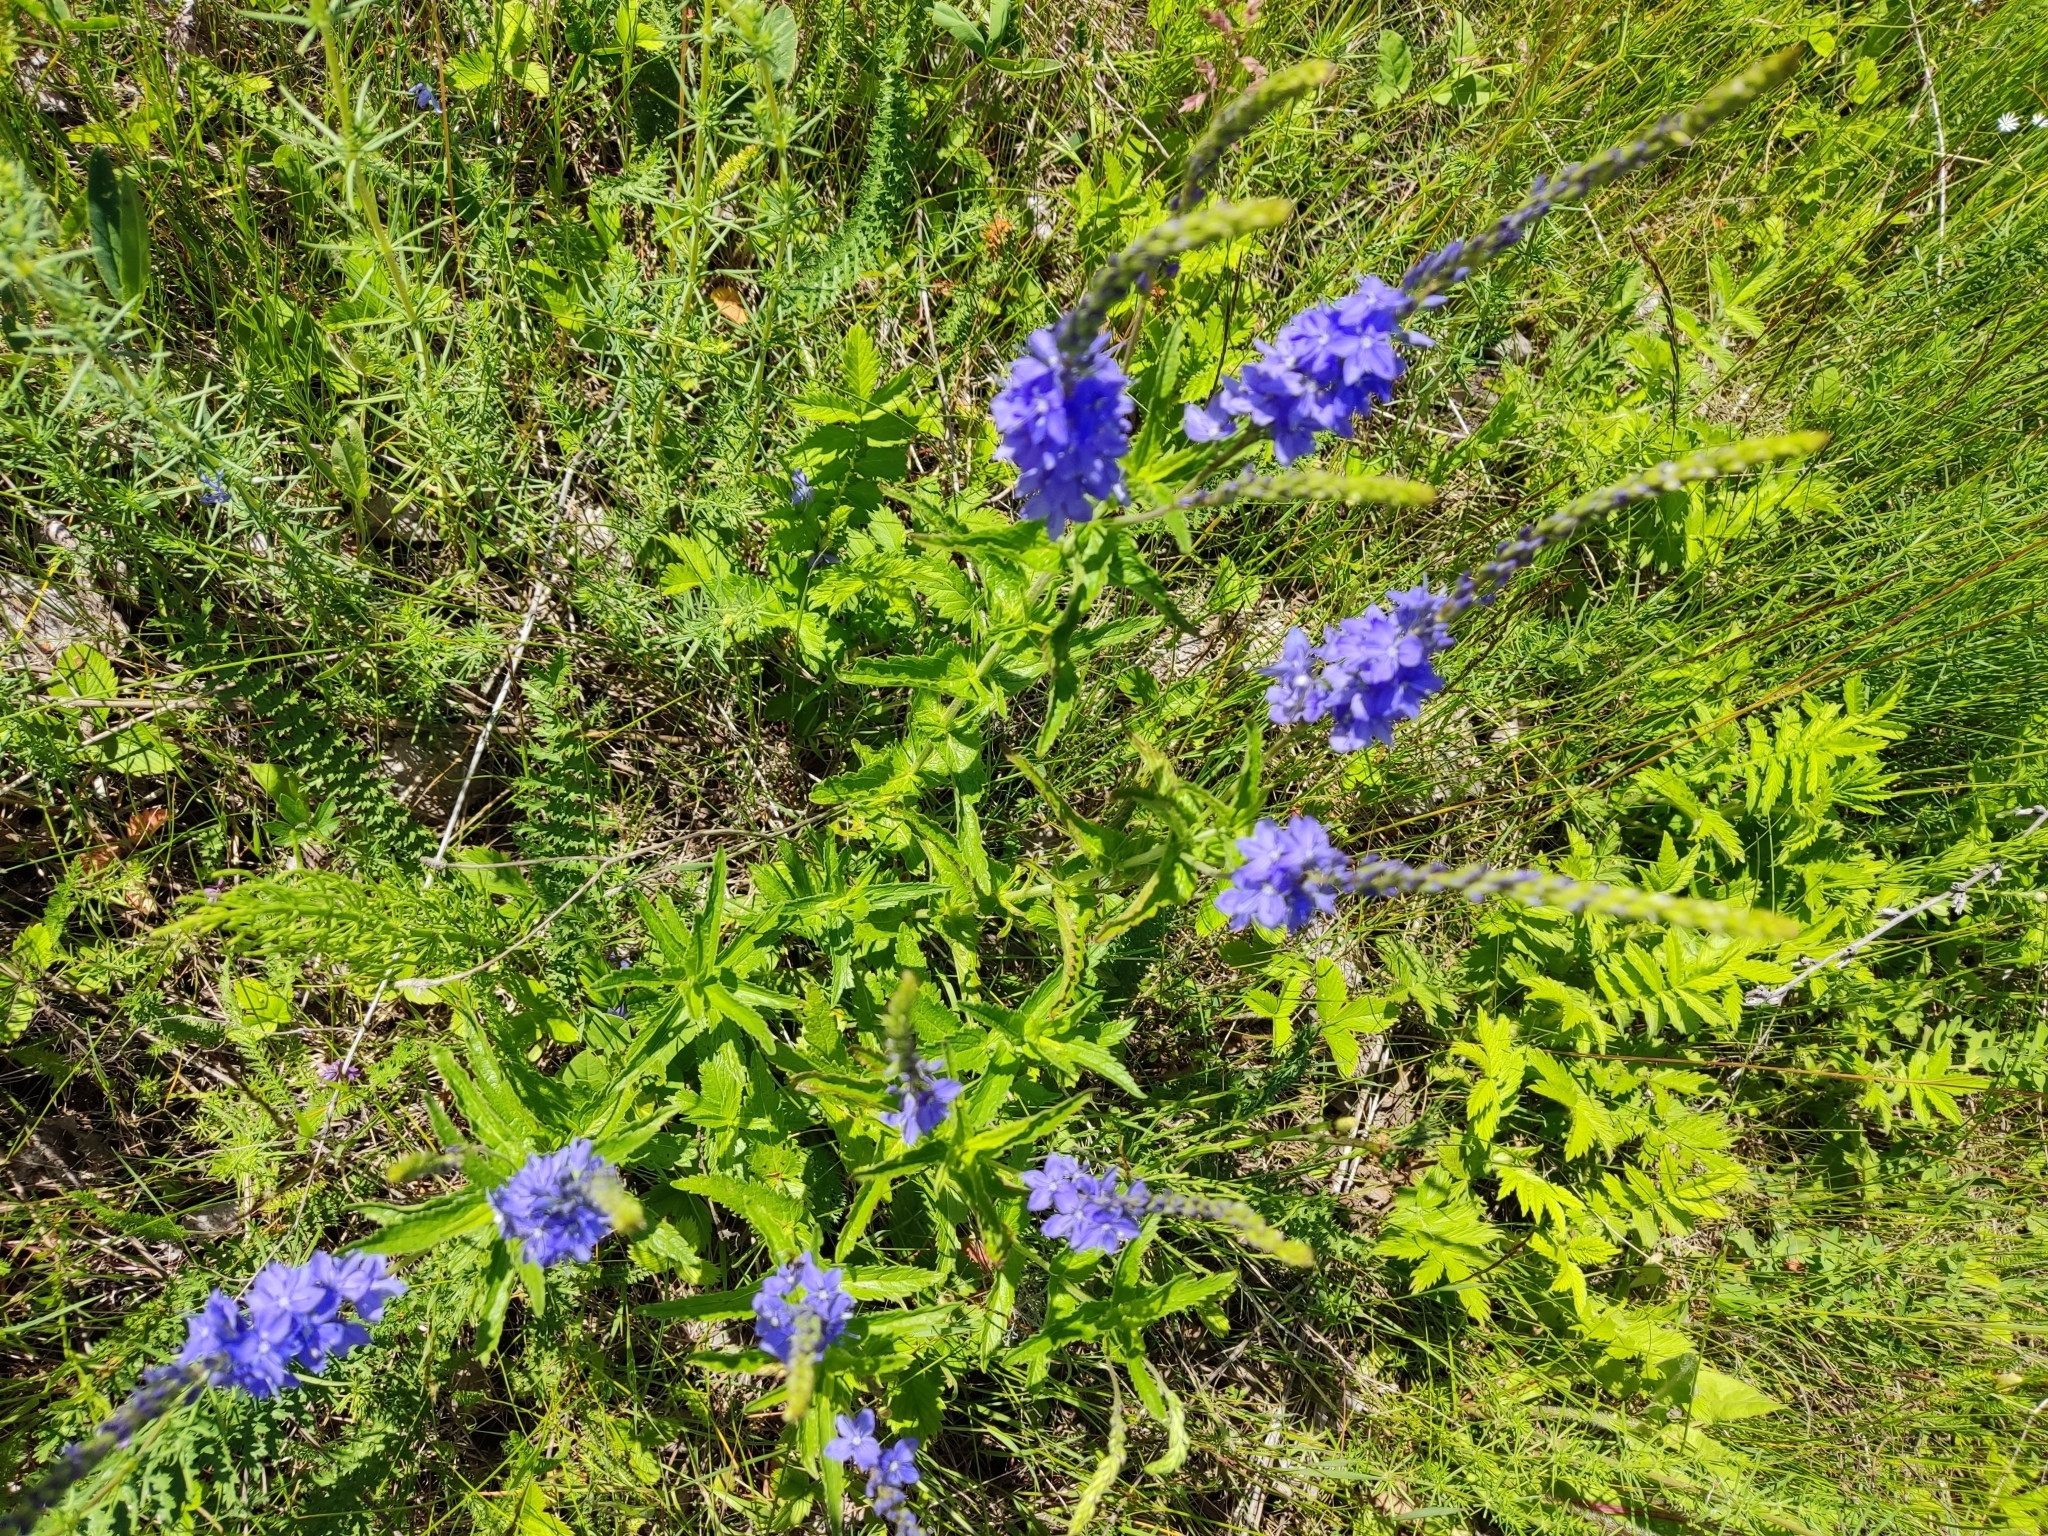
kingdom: Plantae
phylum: Tracheophyta
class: Magnoliopsida
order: Lamiales
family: Plantaginaceae
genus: Veronica
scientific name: Veronica teucrium
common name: Large speedwell
